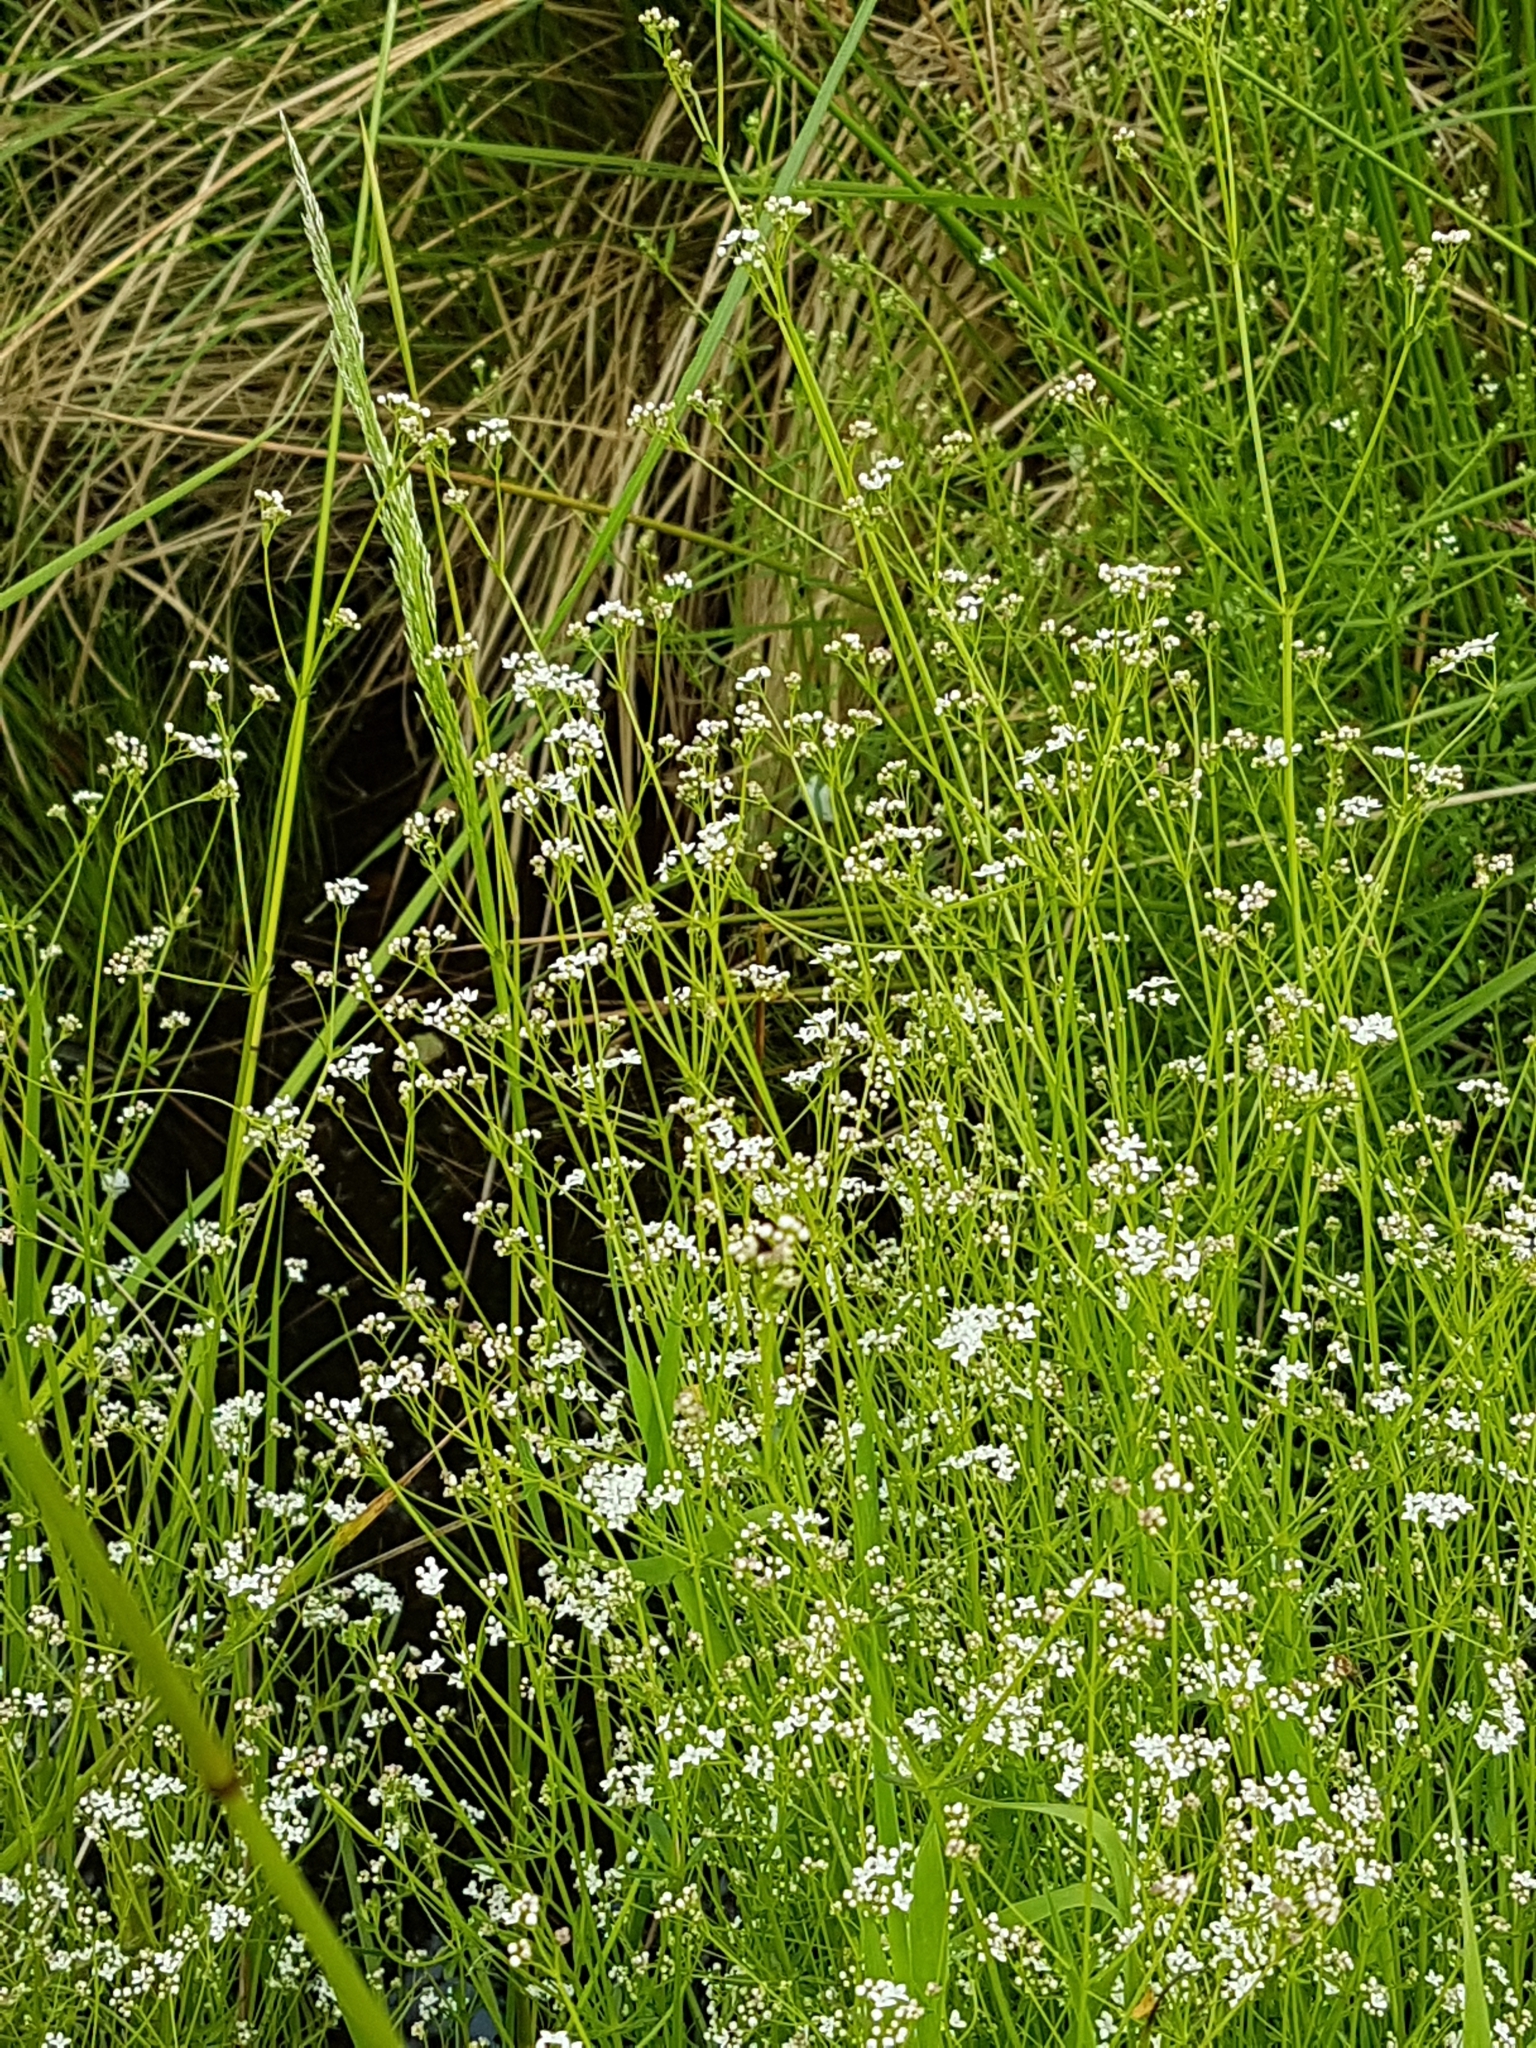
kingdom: Plantae
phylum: Tracheophyta
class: Magnoliopsida
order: Gentianales
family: Rubiaceae
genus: Galium
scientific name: Galium palustre
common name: Common marsh-bedstraw
